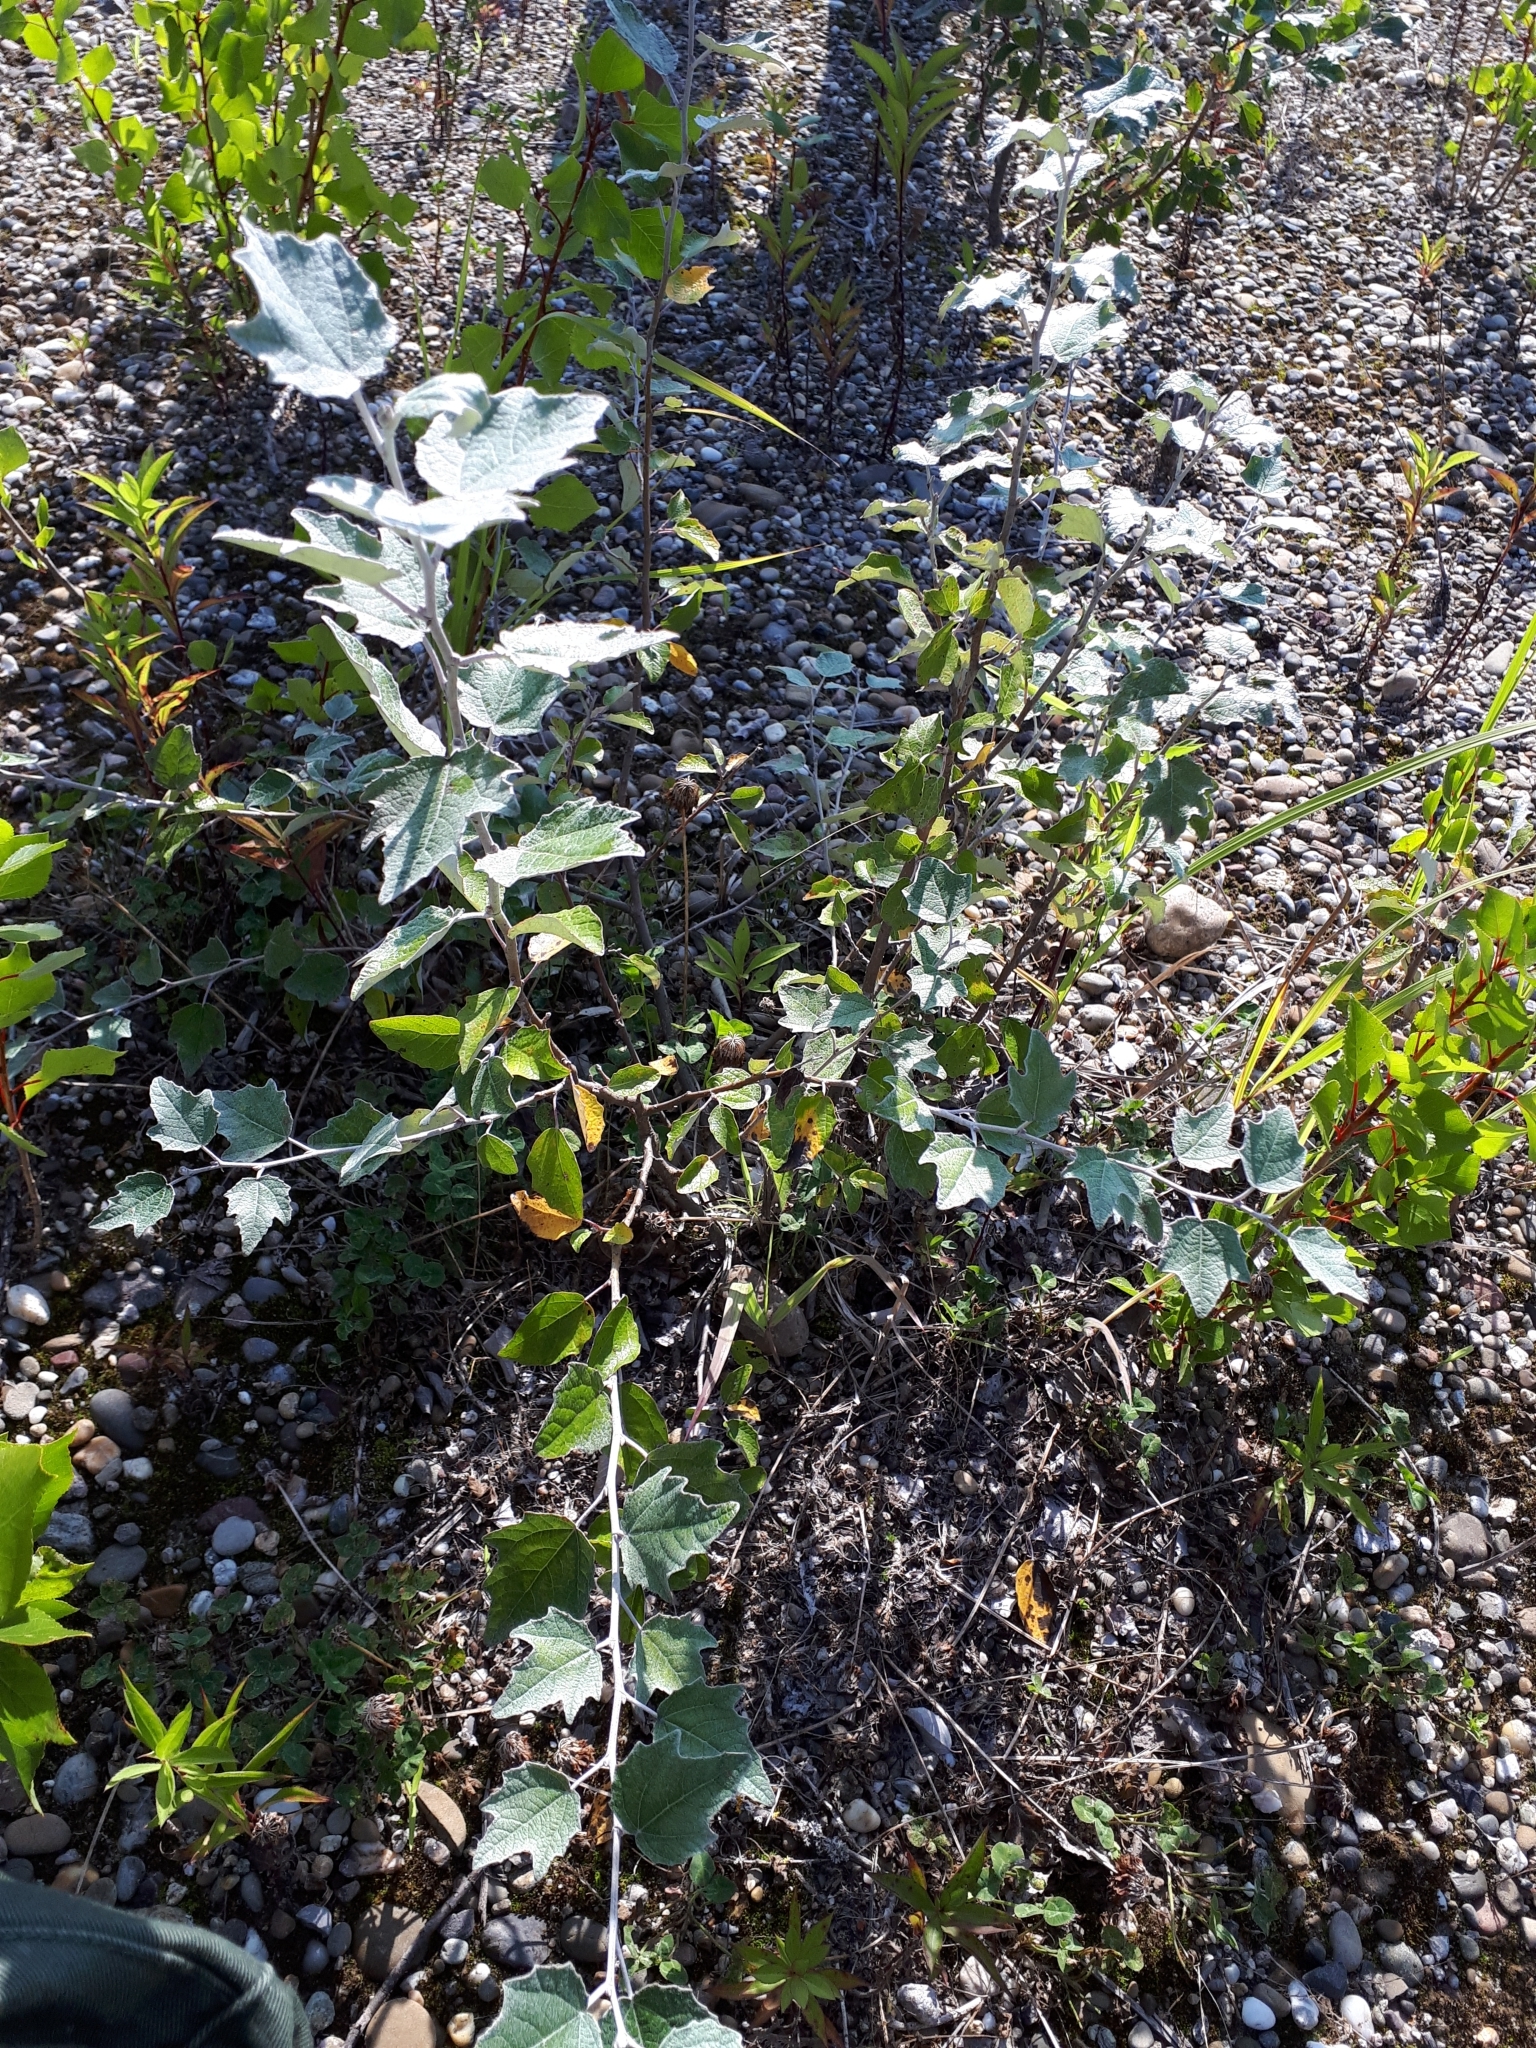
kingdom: Plantae
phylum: Tracheophyta
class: Magnoliopsida
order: Malpighiales
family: Salicaceae
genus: Populus
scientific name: Populus alba
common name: White poplar
